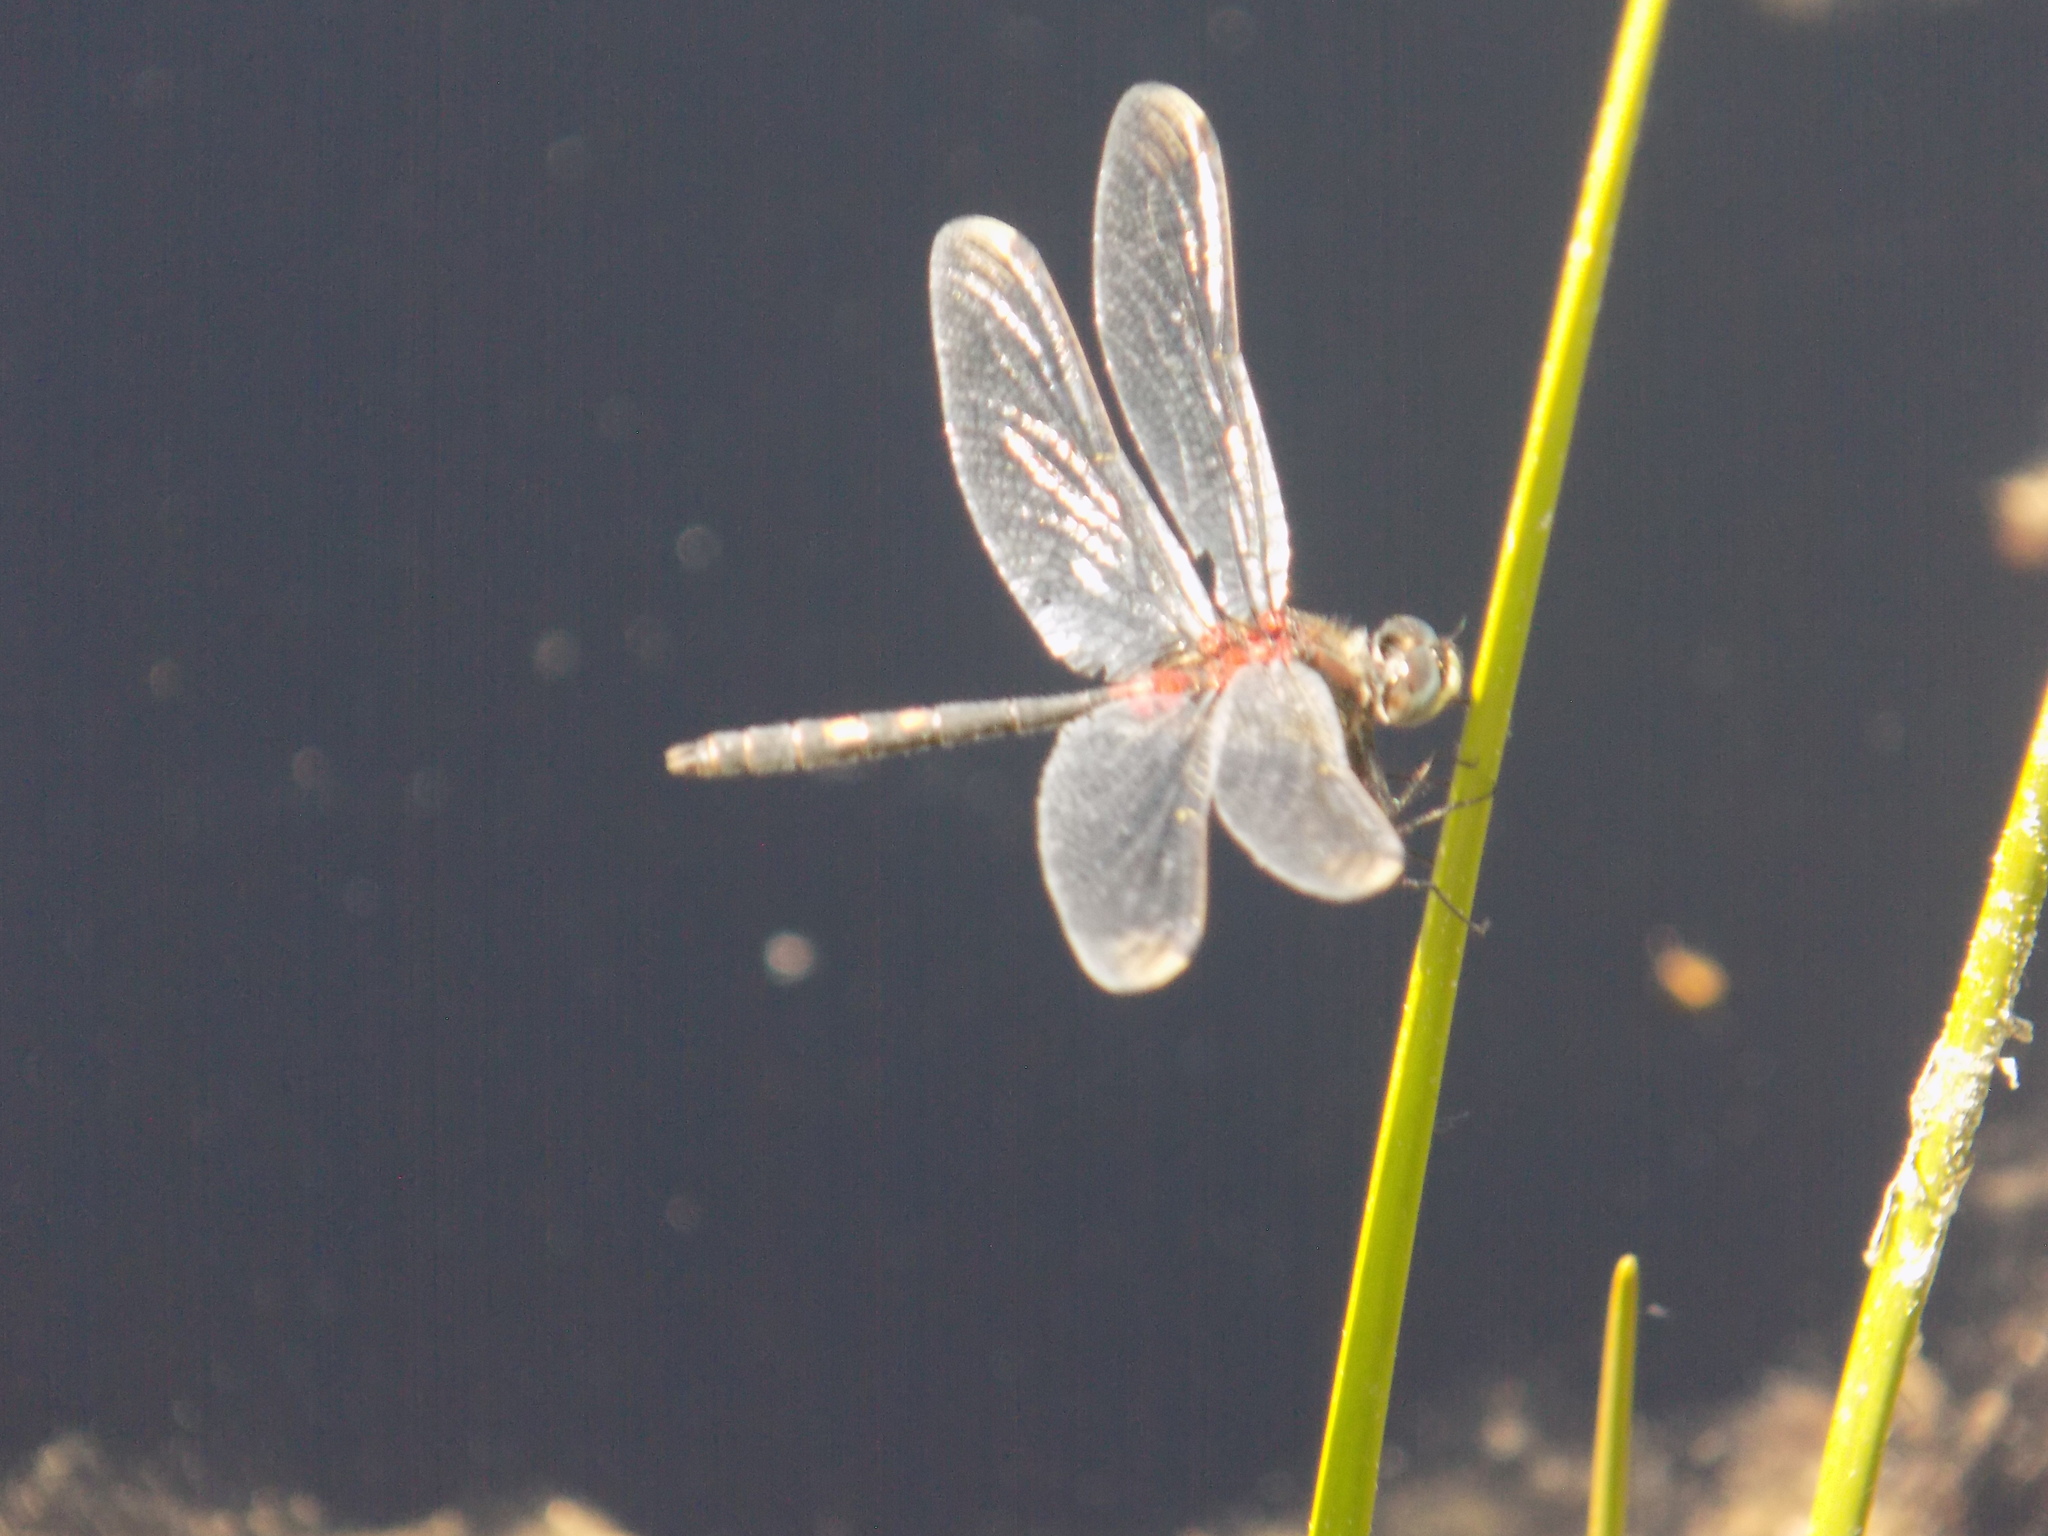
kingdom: Animalia
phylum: Arthropoda
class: Insecta
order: Odonata
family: Libellulidae
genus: Leucorrhinia
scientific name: Leucorrhinia orientalis
